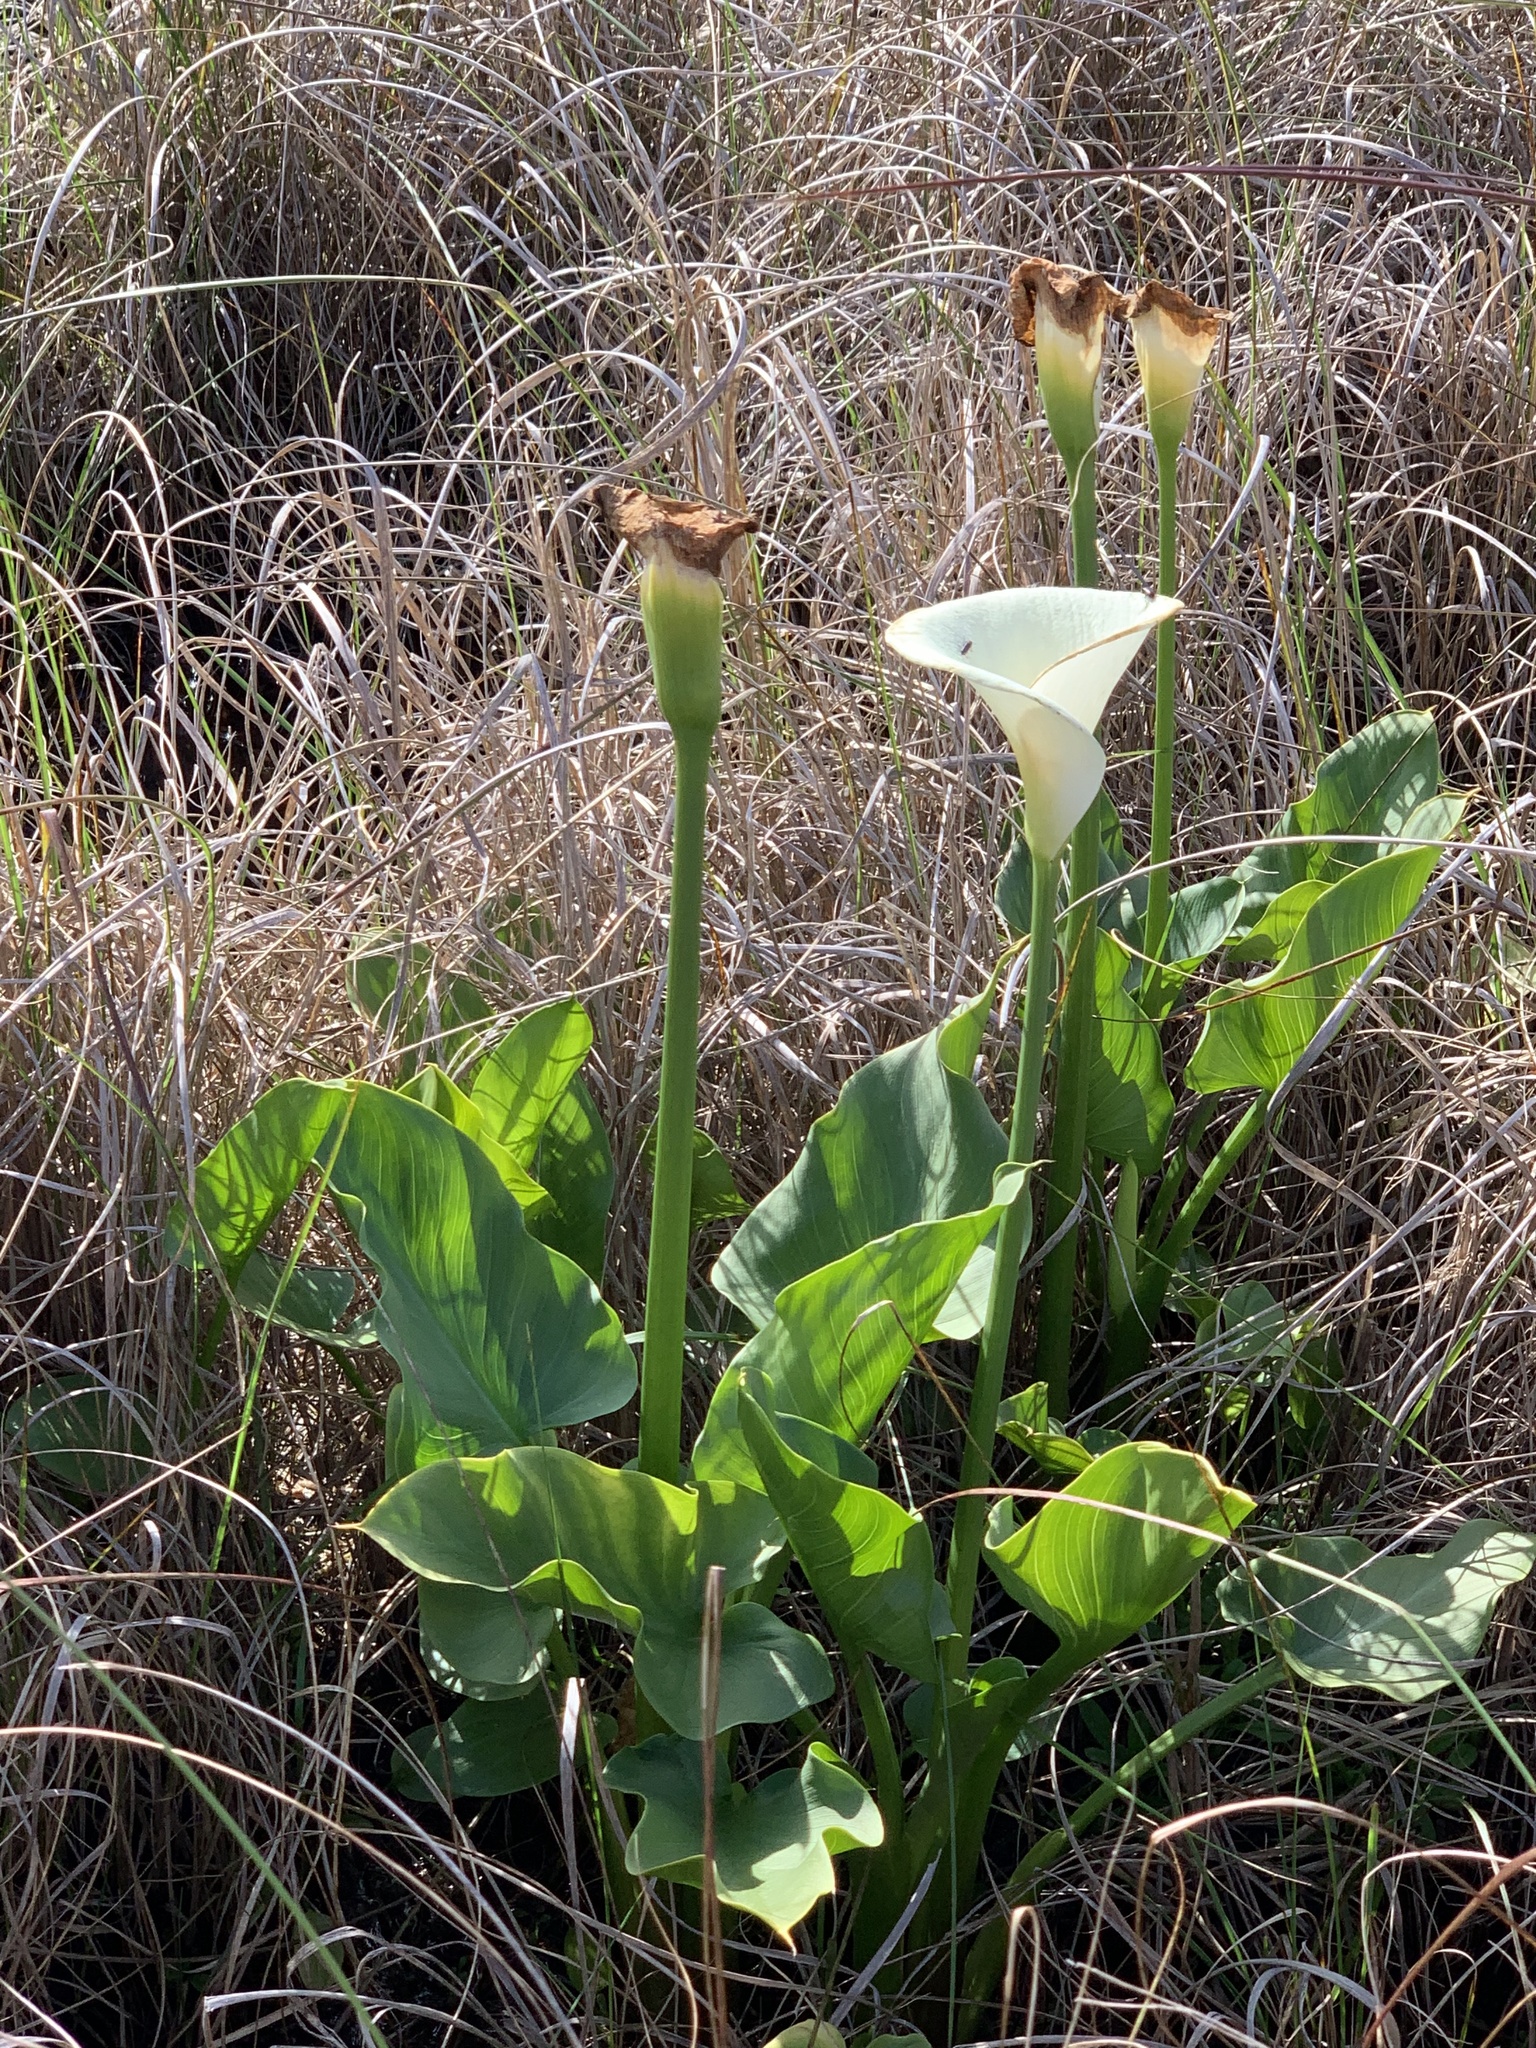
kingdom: Plantae
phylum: Tracheophyta
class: Liliopsida
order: Alismatales
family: Araceae
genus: Zantedeschia
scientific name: Zantedeschia aethiopica
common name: Altar-lily
